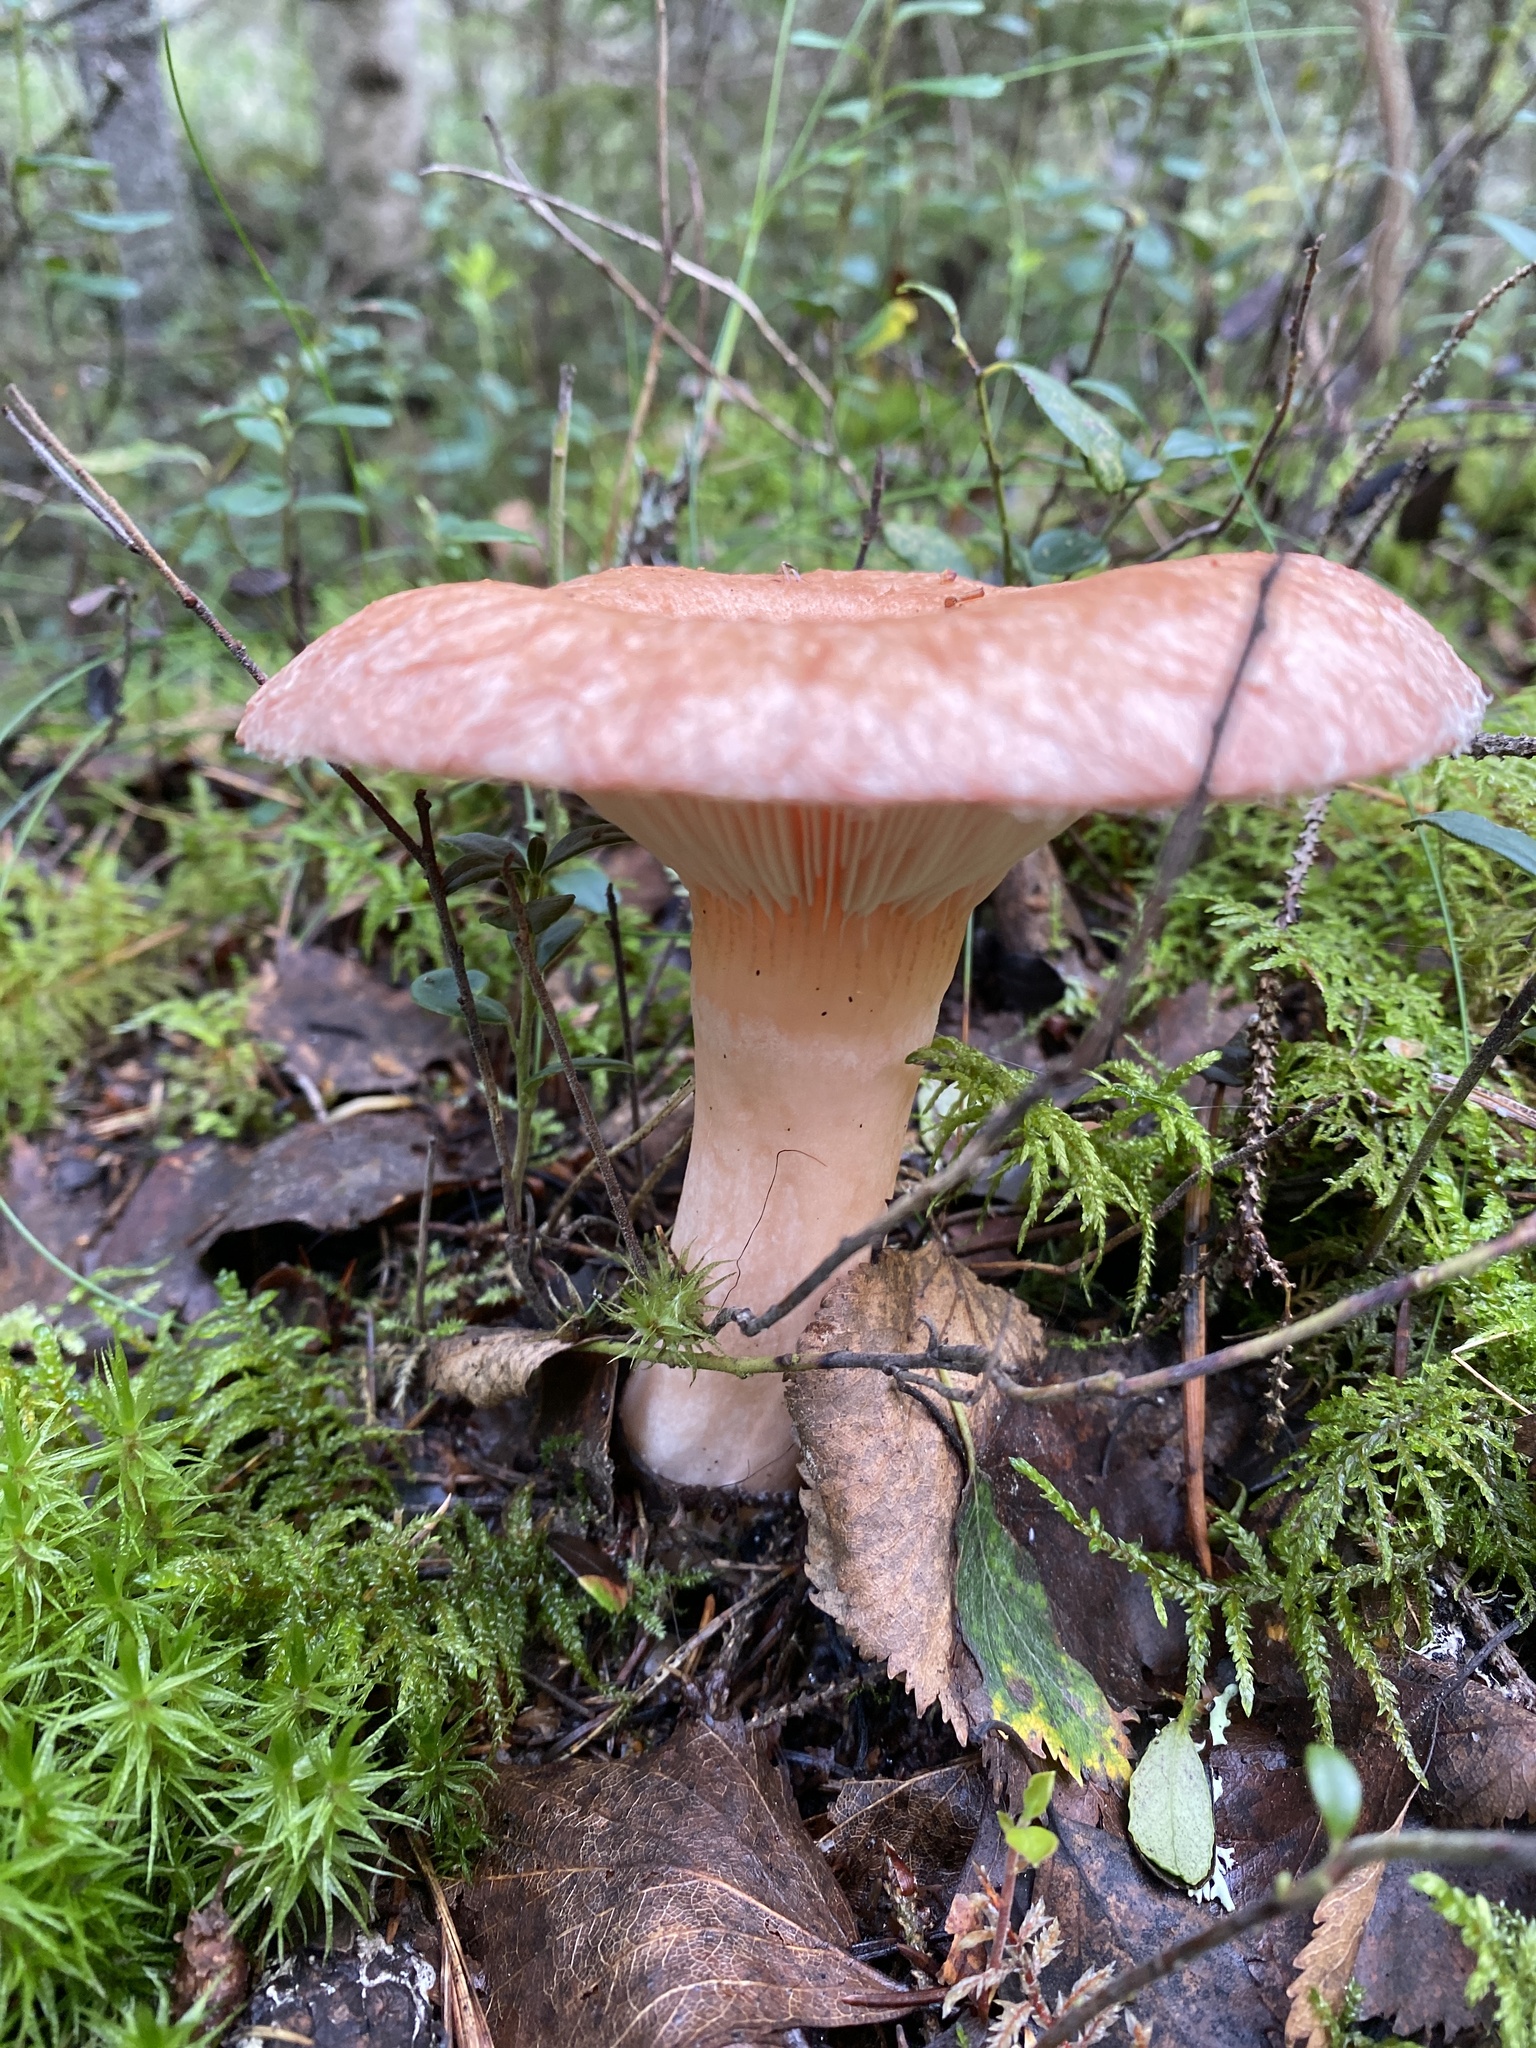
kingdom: Fungi
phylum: Basidiomycota
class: Agaricomycetes
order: Russulales
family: Russulaceae
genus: Lactarius
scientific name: Lactarius torminosus
